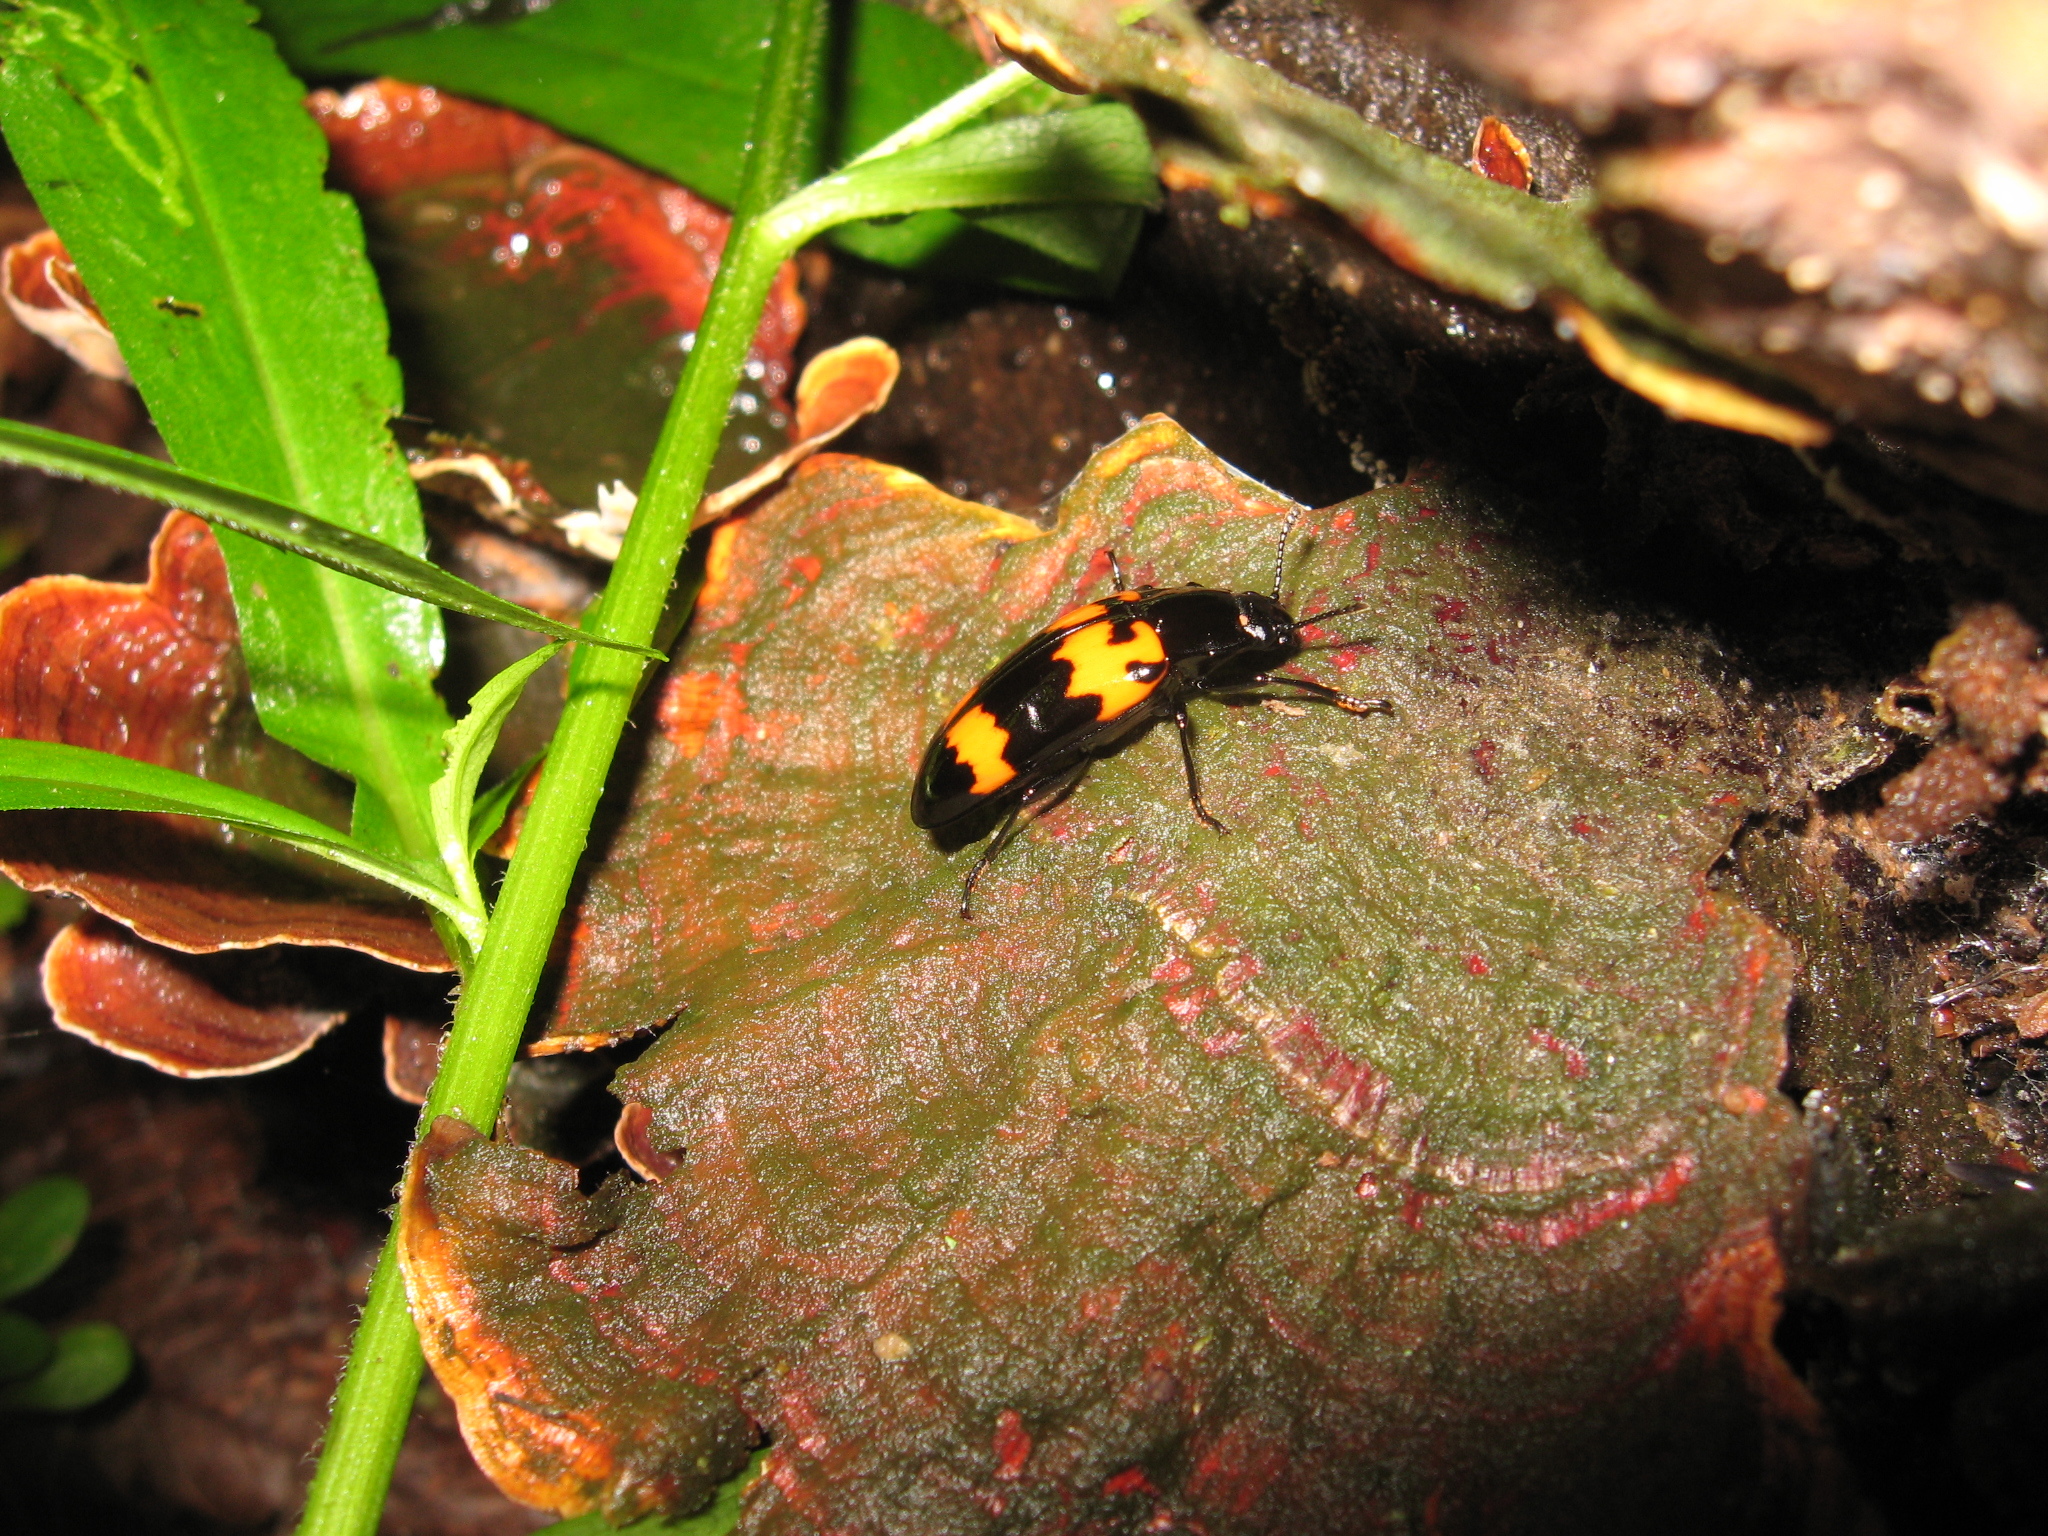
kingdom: Animalia
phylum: Arthropoda
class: Insecta
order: Coleoptera
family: Erotylidae
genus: Megalodacne
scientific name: Megalodacne heros
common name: Pleasing fungus beetle
